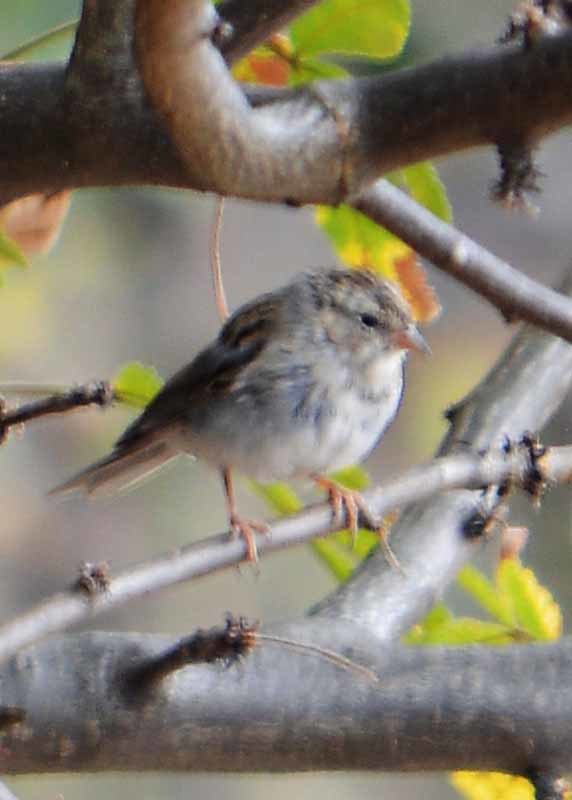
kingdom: Animalia
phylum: Chordata
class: Aves
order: Passeriformes
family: Passerellidae
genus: Spizella
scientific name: Spizella passerina
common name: Chipping sparrow
